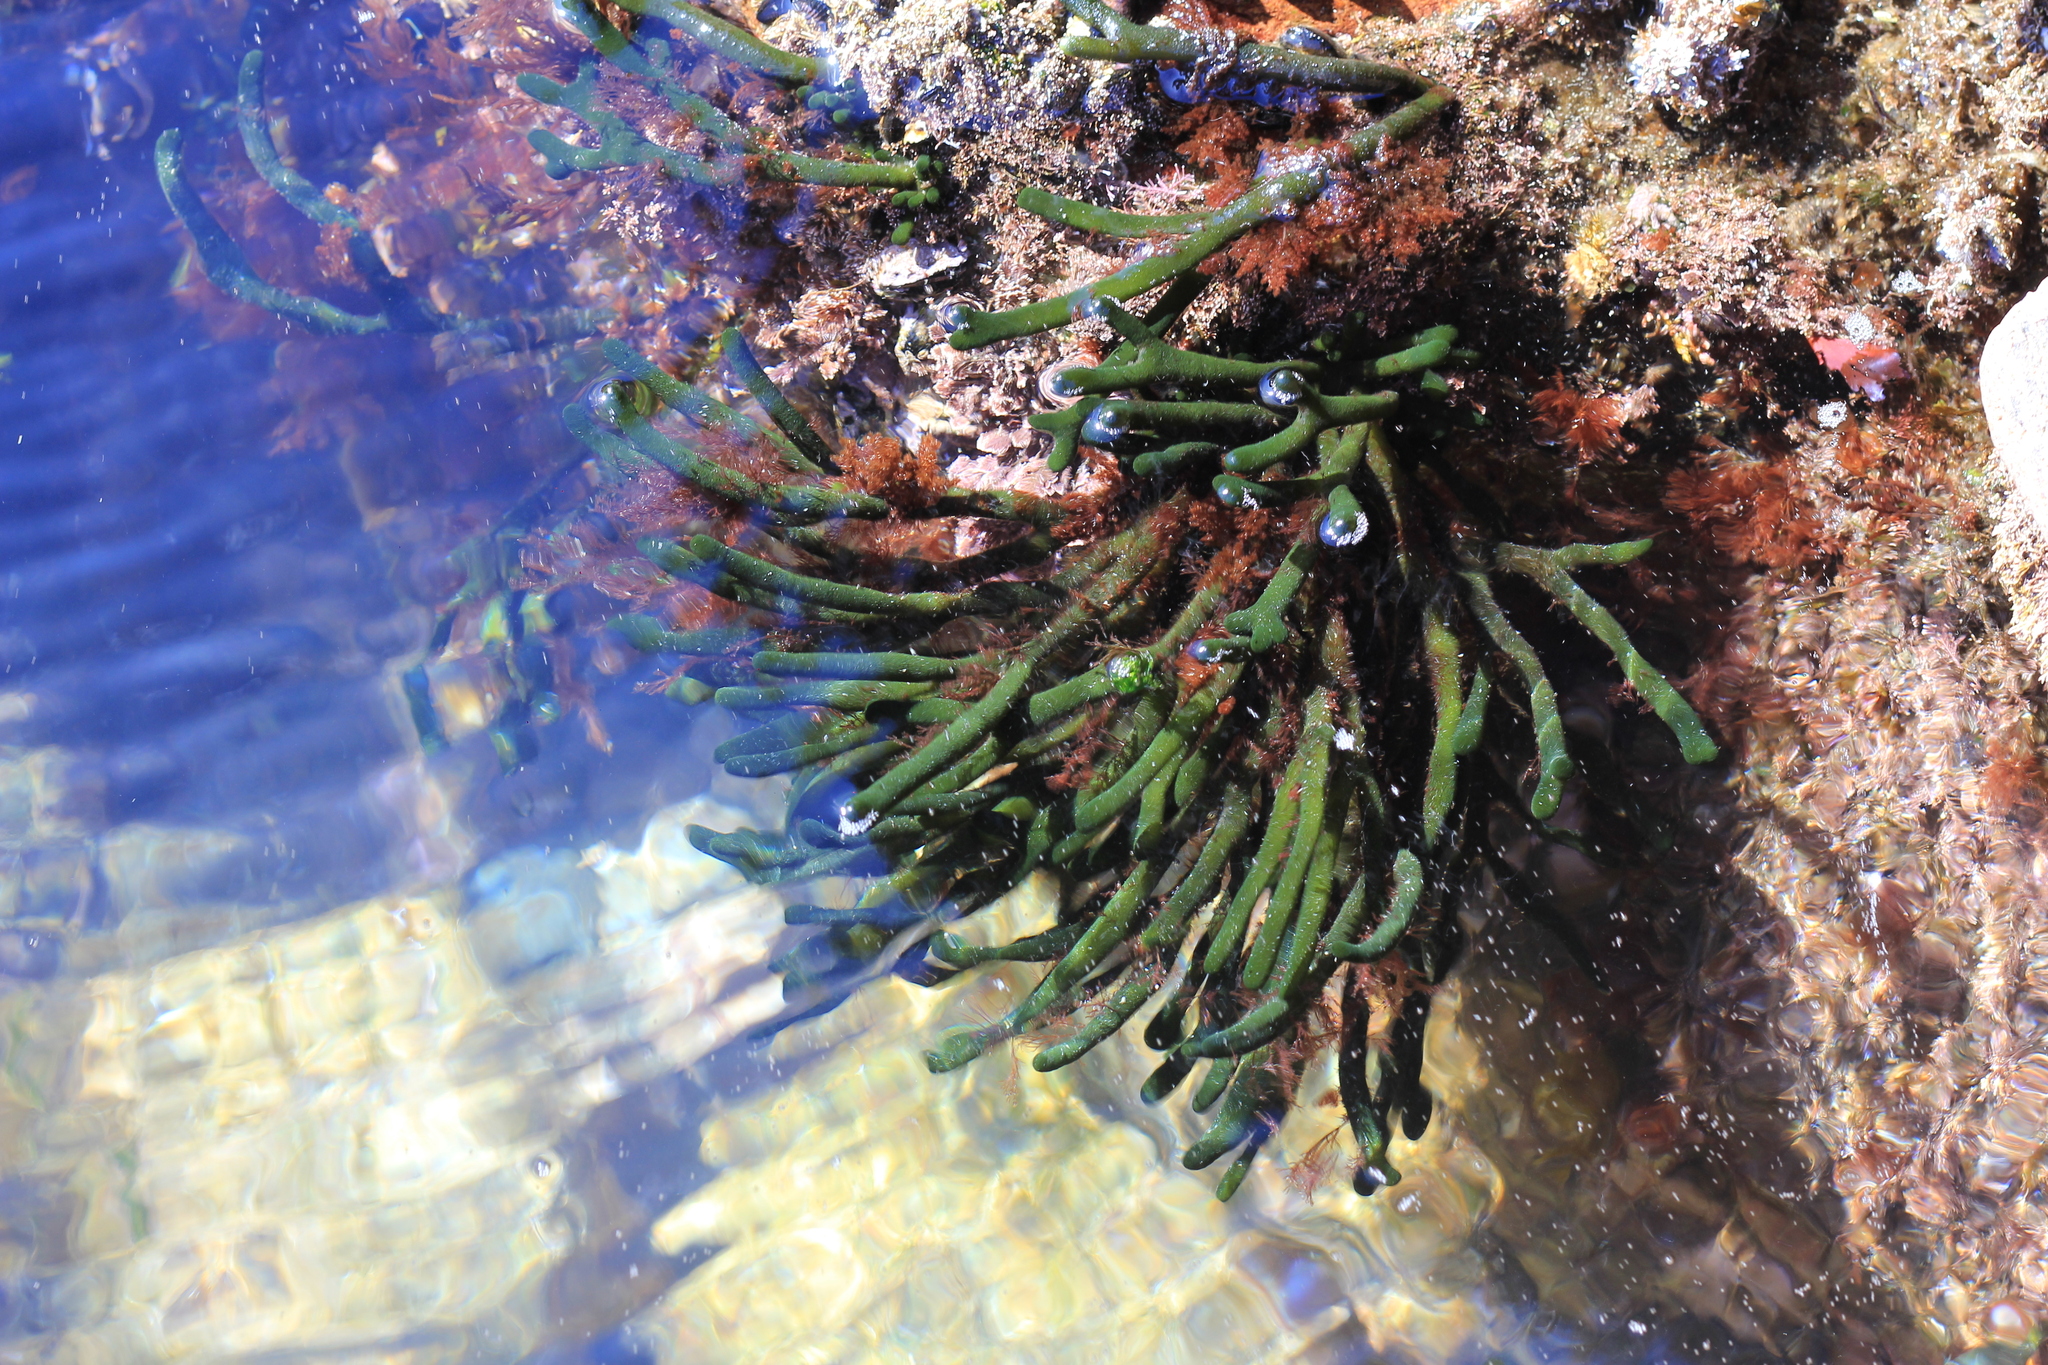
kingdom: Plantae
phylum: Chlorophyta
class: Ulvophyceae
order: Bryopsidales
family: Codiaceae
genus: Codium
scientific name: Codium fragile
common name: Dead man's fingers
